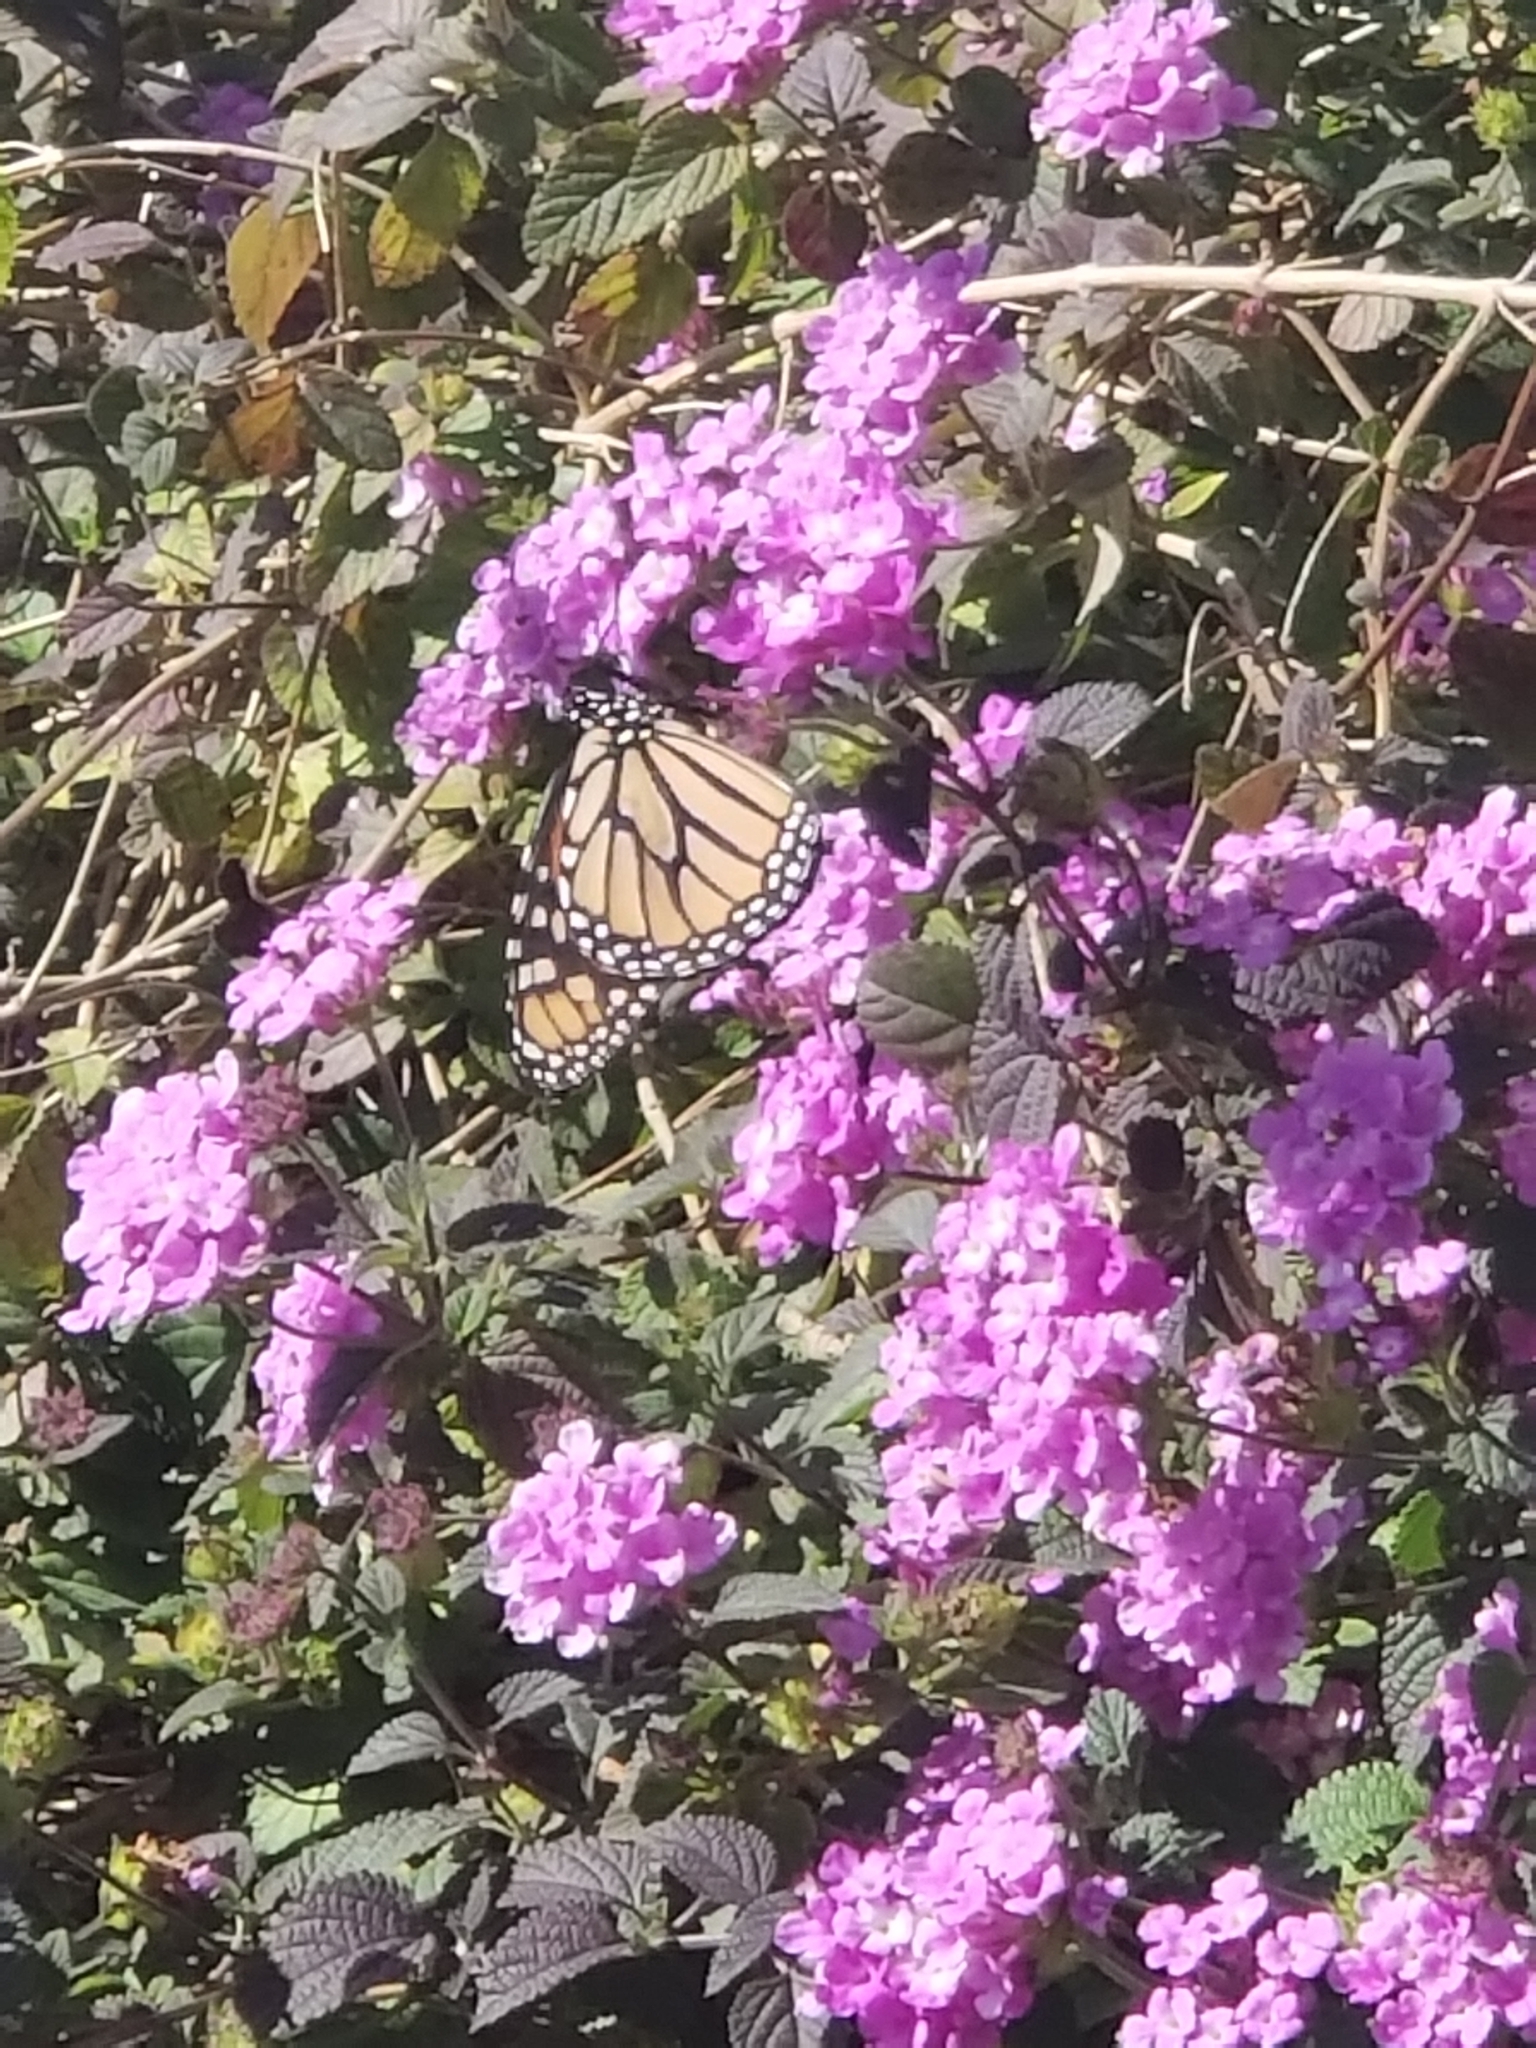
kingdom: Animalia
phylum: Arthropoda
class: Insecta
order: Lepidoptera
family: Nymphalidae
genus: Danaus
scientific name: Danaus plexippus
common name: Monarch
